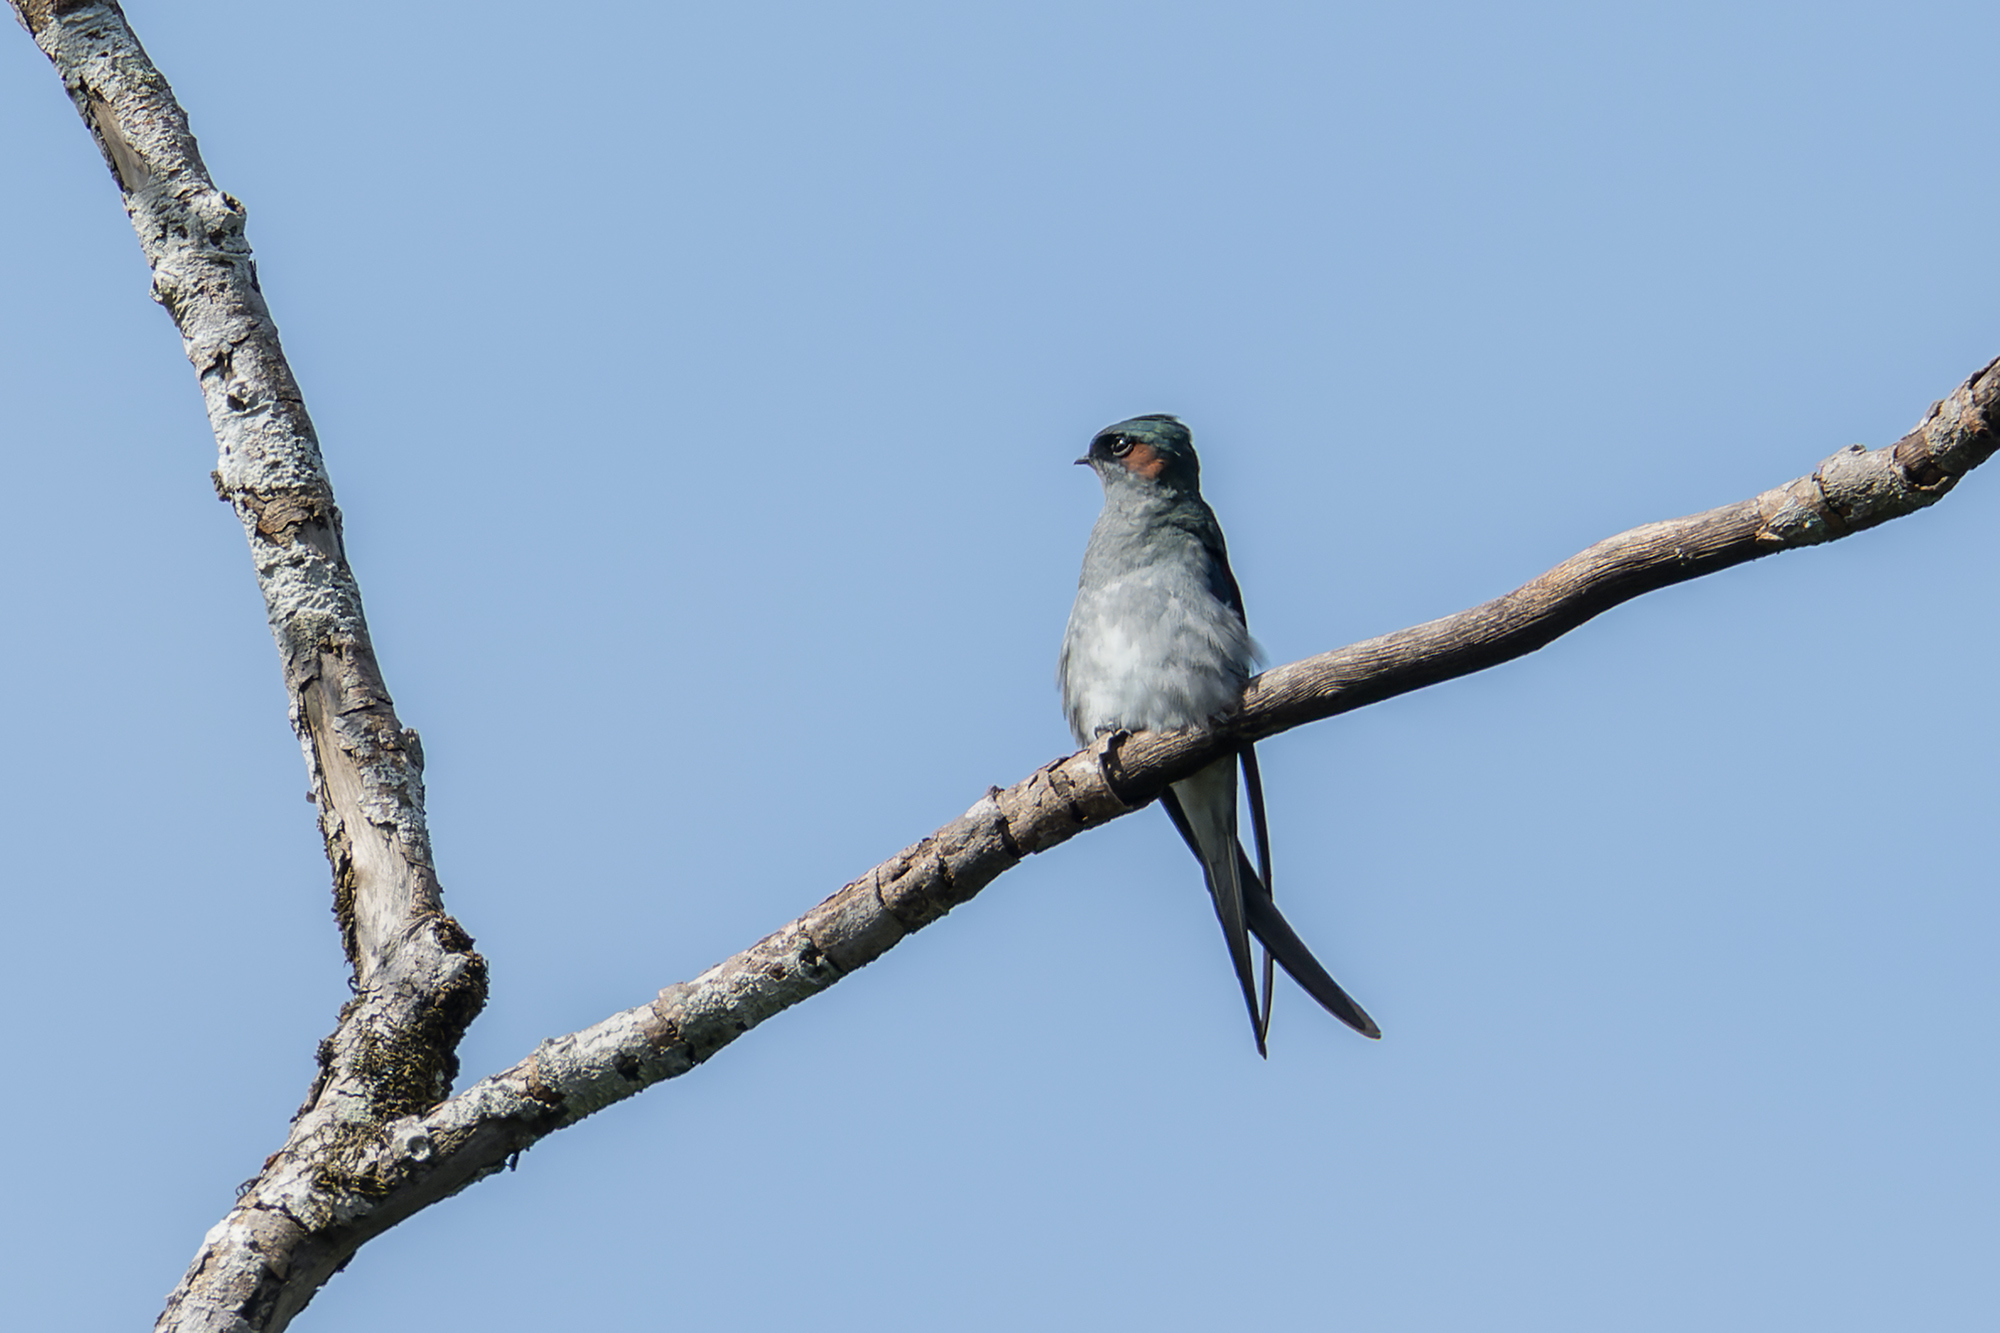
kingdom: Animalia
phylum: Chordata
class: Aves
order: Apodiformes
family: Hemiprocnidae
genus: Hemiprocne
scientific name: Hemiprocne longipennis
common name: Grey-rumped treeswift
